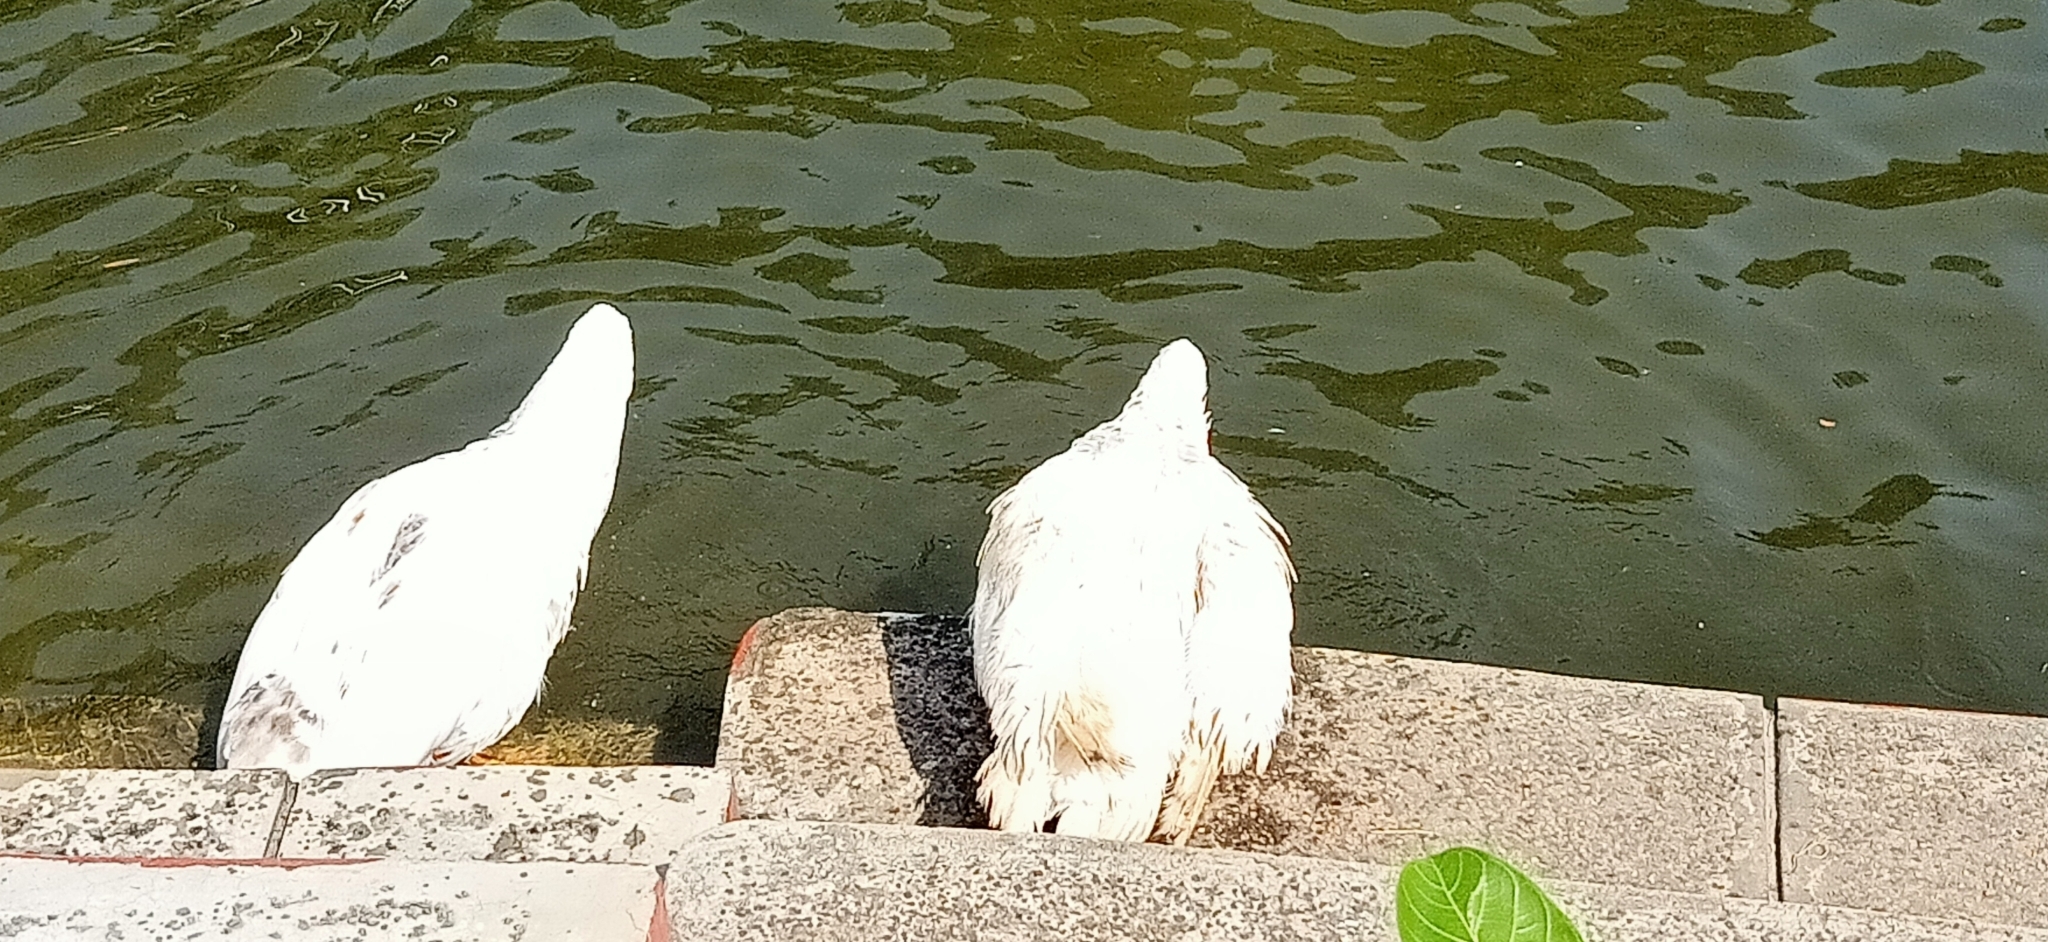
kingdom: Animalia
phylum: Chordata
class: Aves
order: Anseriformes
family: Anatidae
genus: Anser
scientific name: Anser
